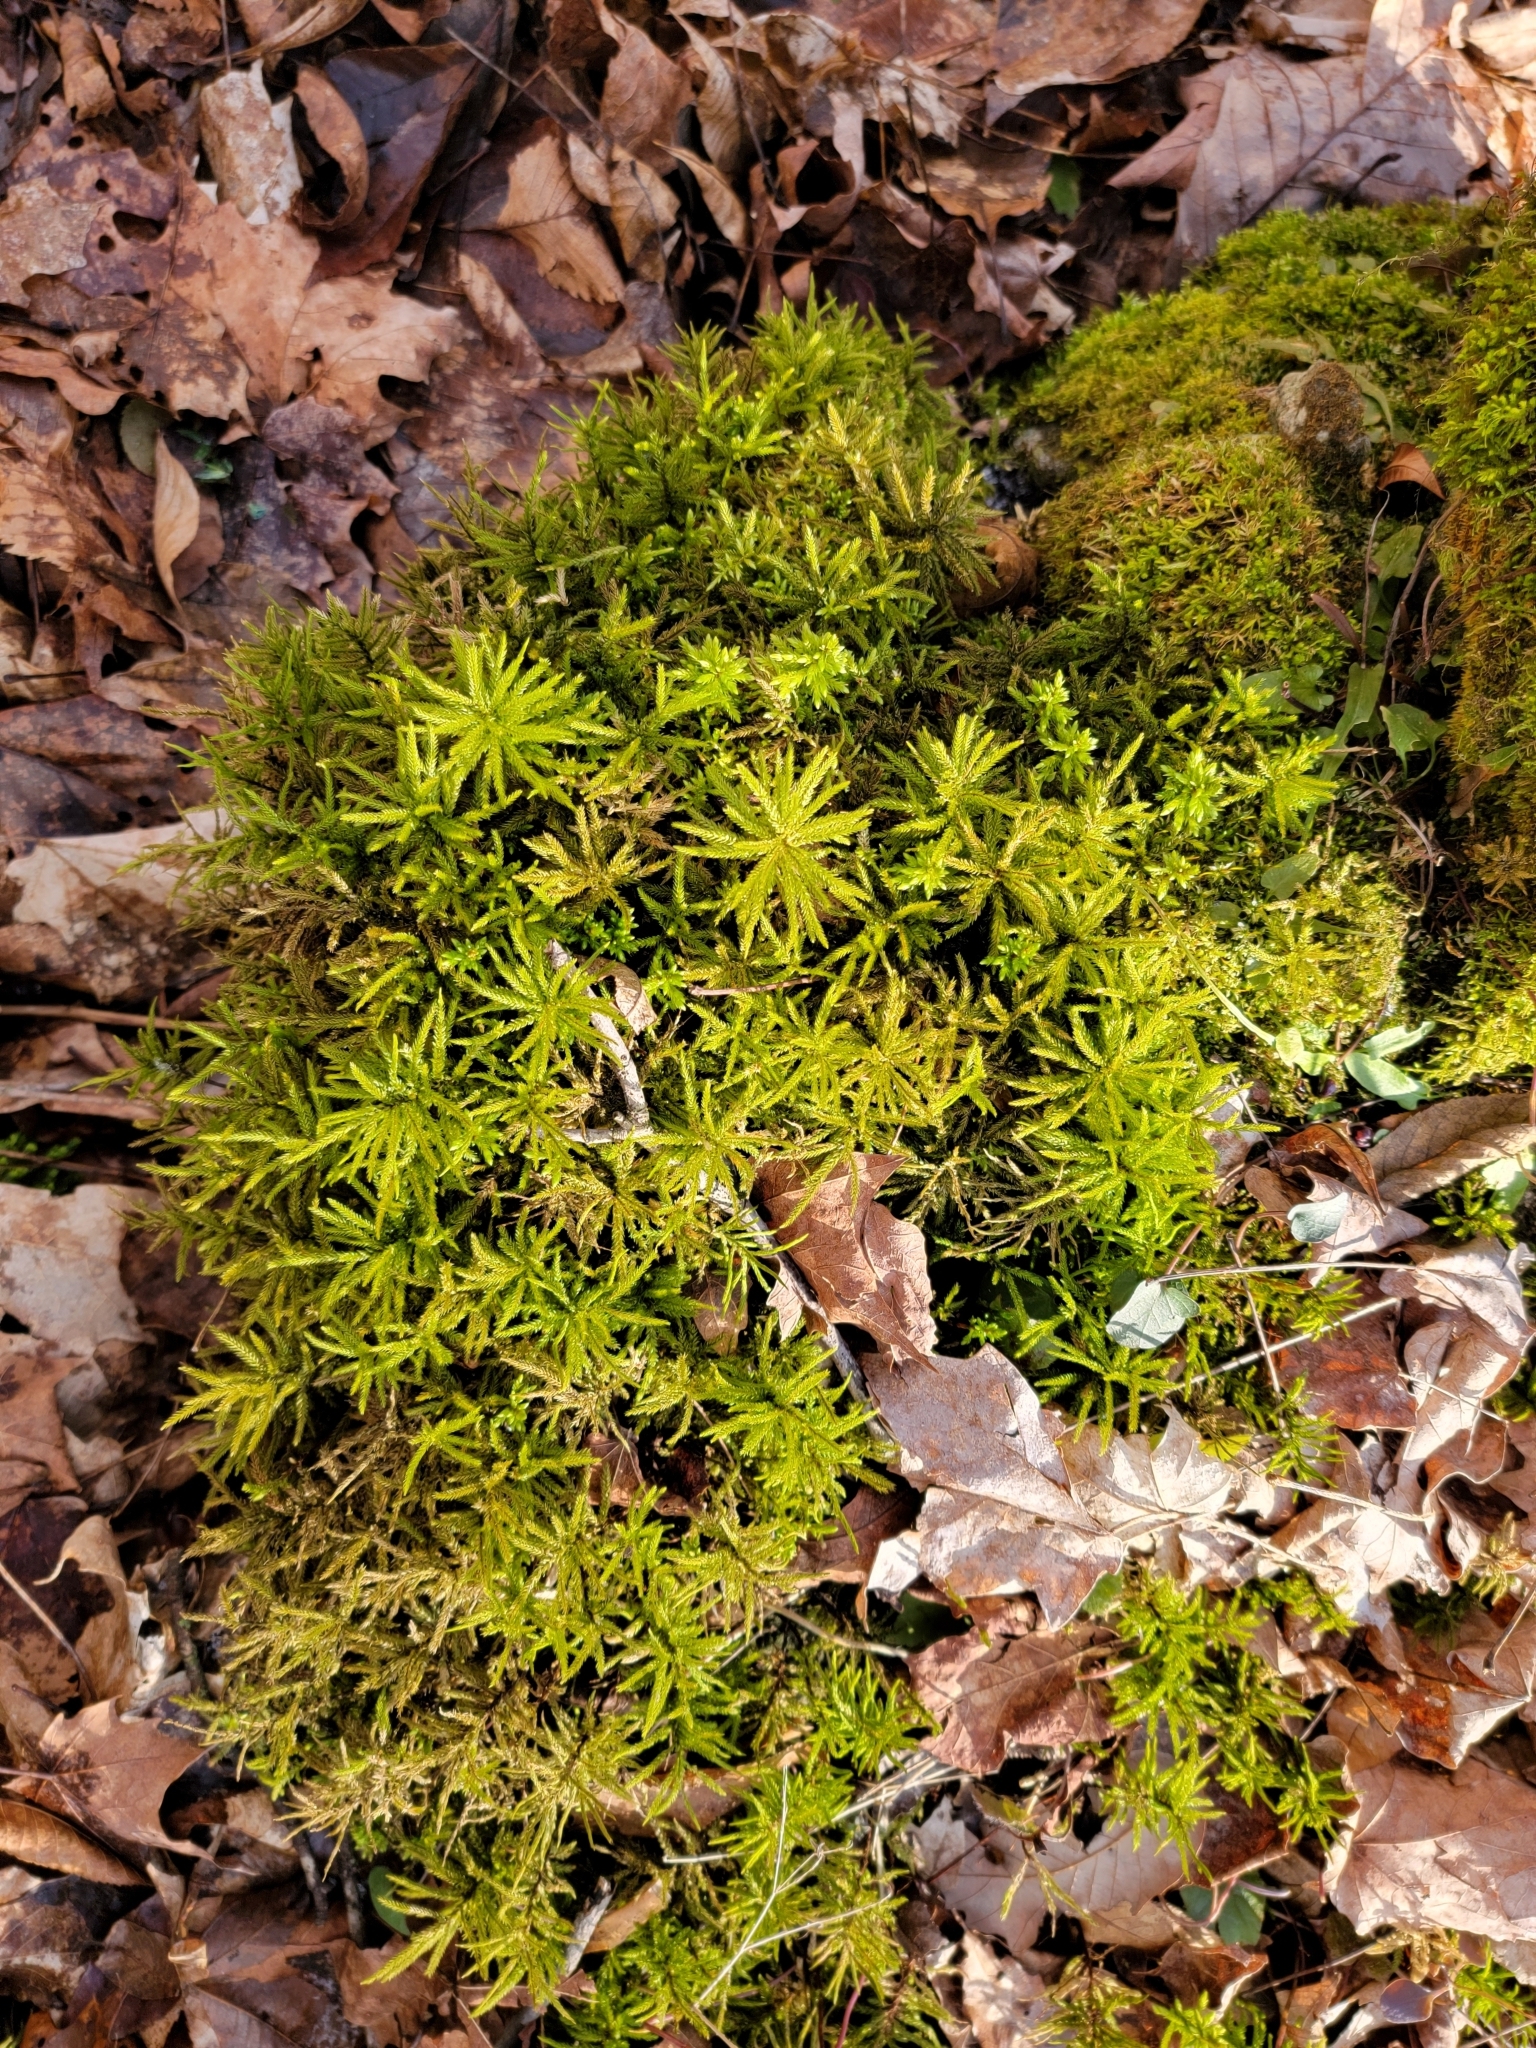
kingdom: Plantae
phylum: Bryophyta
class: Bryopsida
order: Hypnales
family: Climaciaceae
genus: Climacium
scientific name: Climacium americanum
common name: American tree moss
